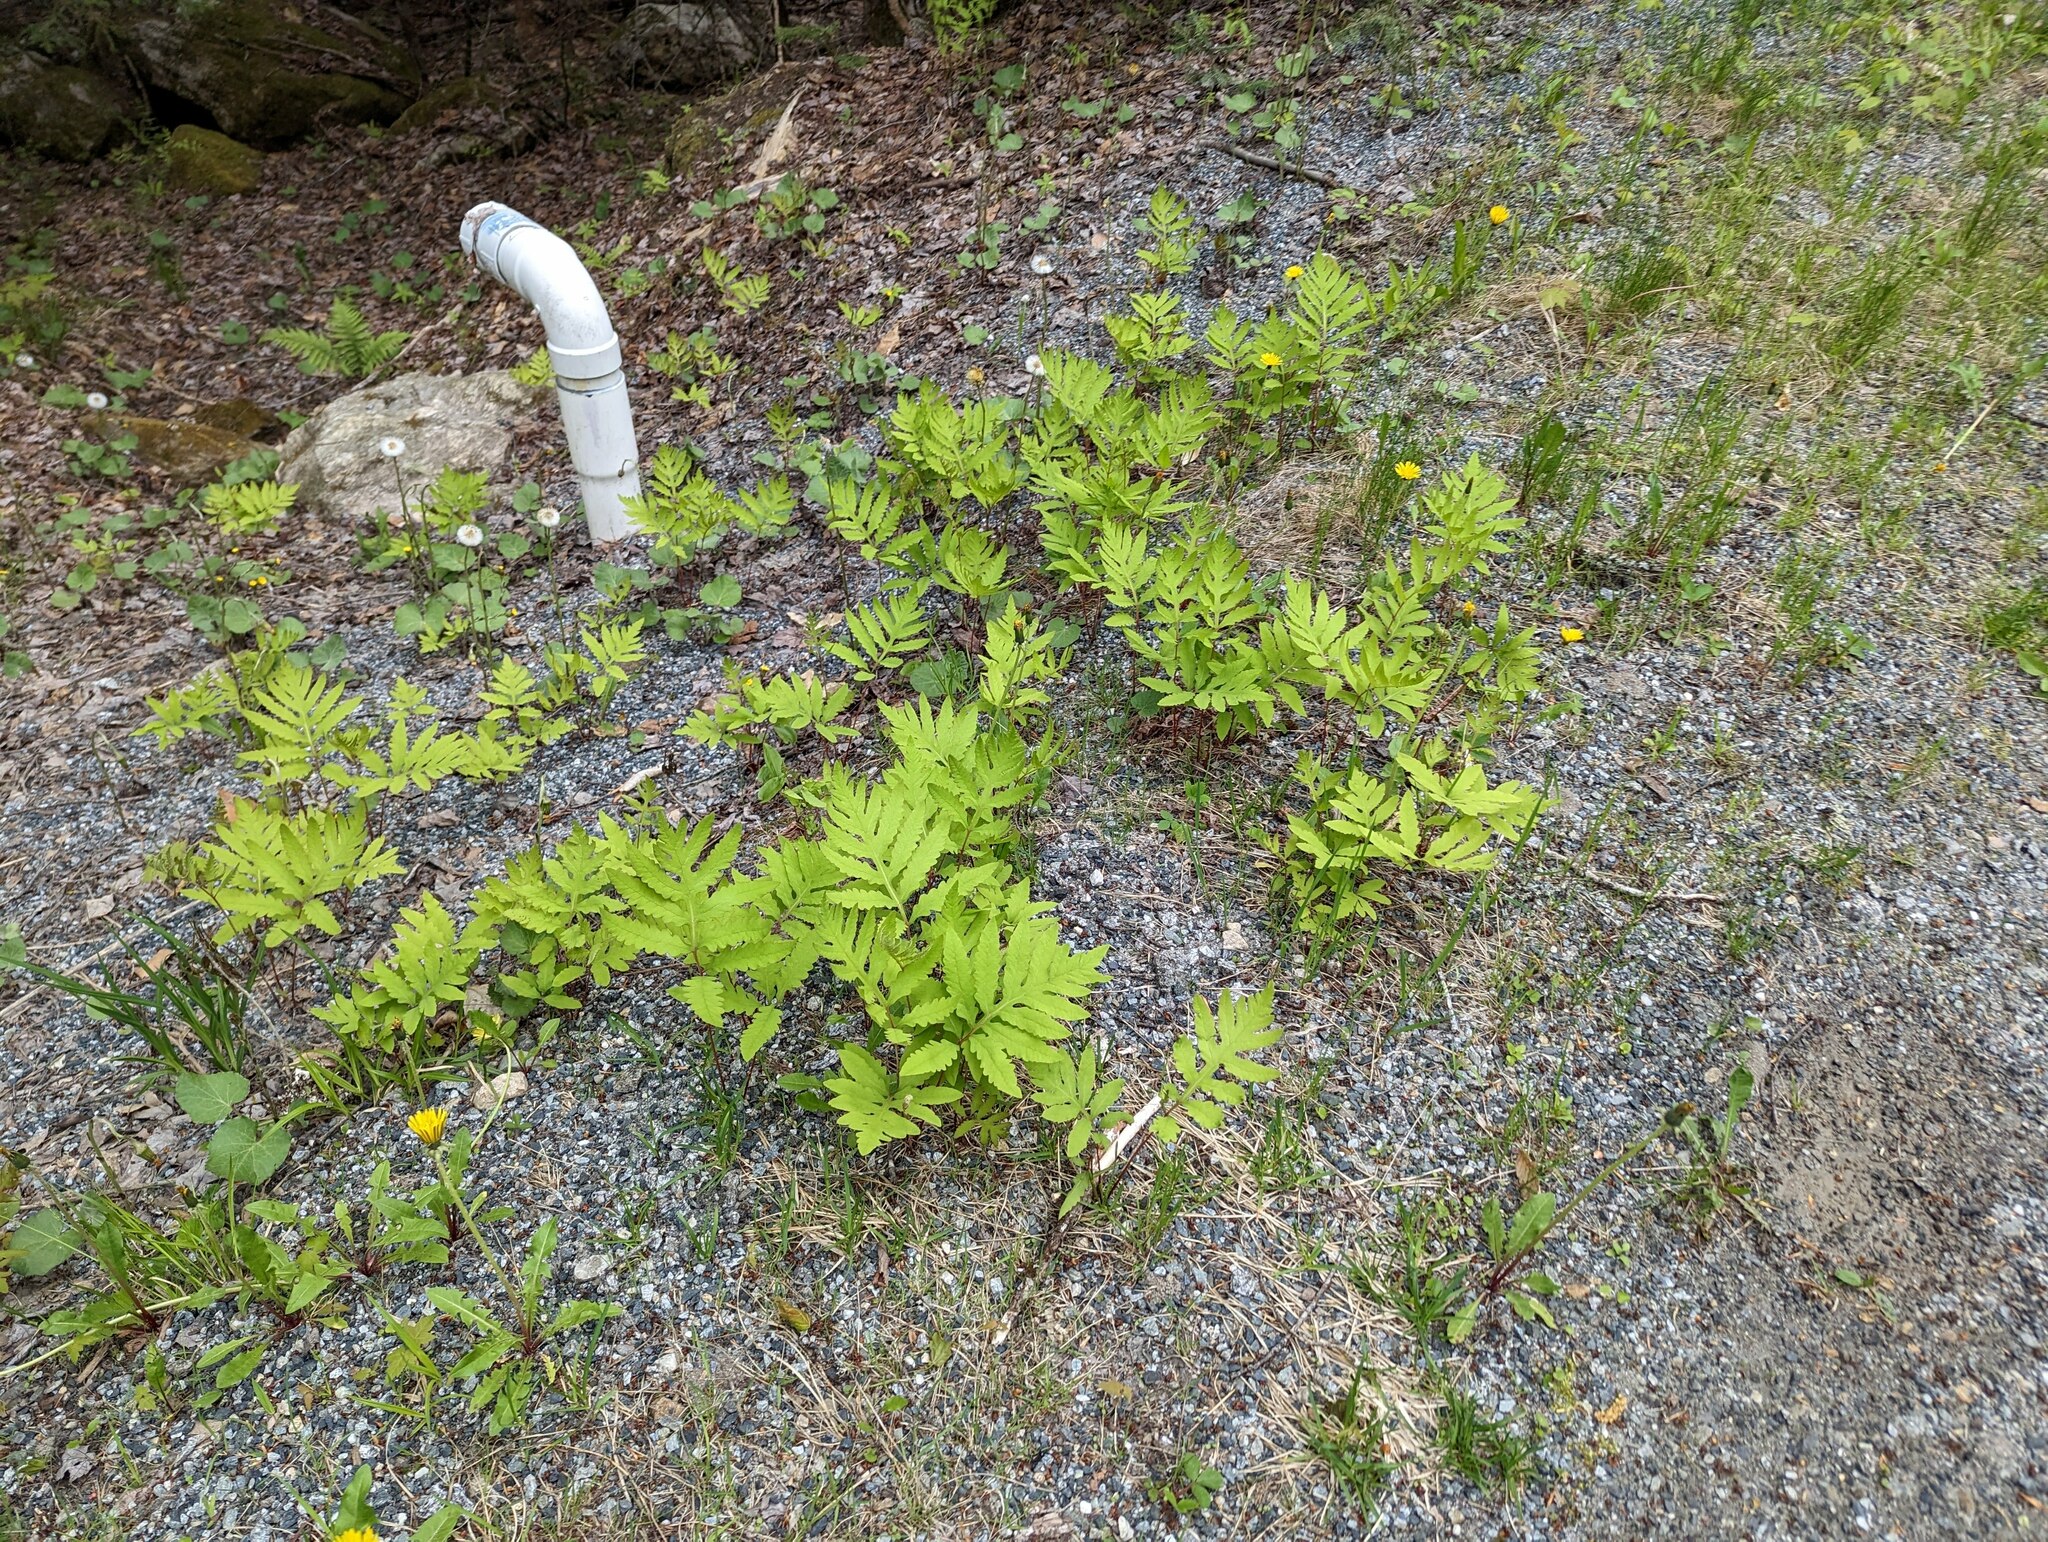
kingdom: Plantae
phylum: Tracheophyta
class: Polypodiopsida
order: Polypodiales
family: Onocleaceae
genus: Onoclea
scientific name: Onoclea sensibilis
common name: Sensitive fern
